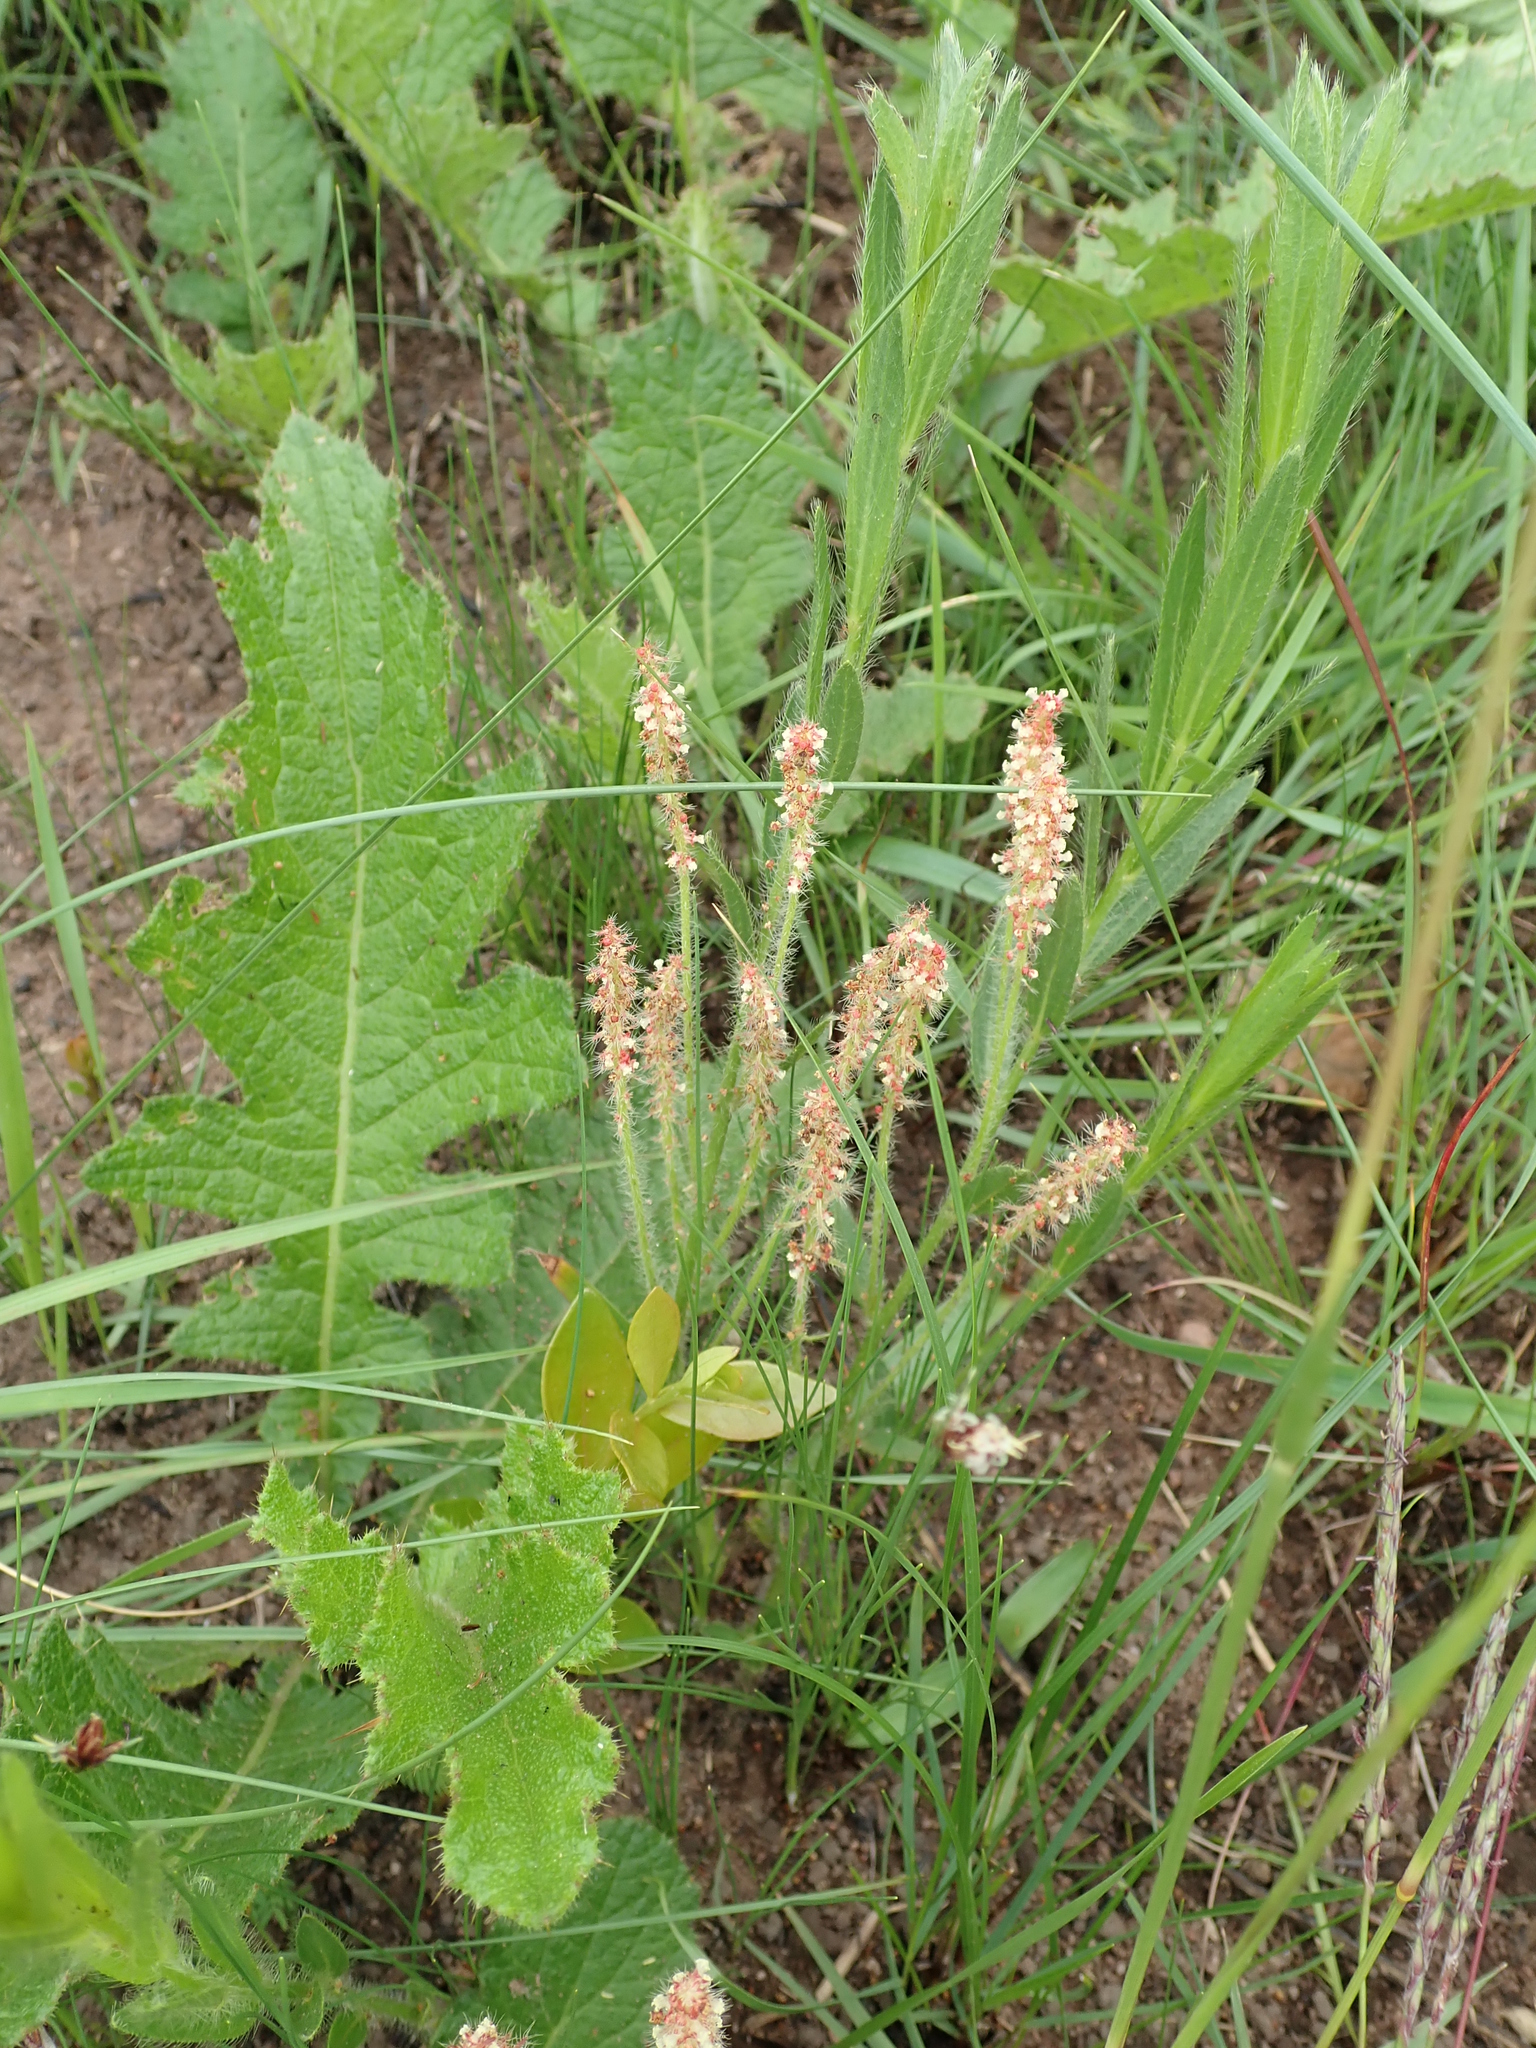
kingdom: Plantae
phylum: Tracheophyta
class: Magnoliopsida
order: Malpighiales
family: Euphorbiaceae
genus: Acalypha
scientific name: Acalypha glandulifolia
